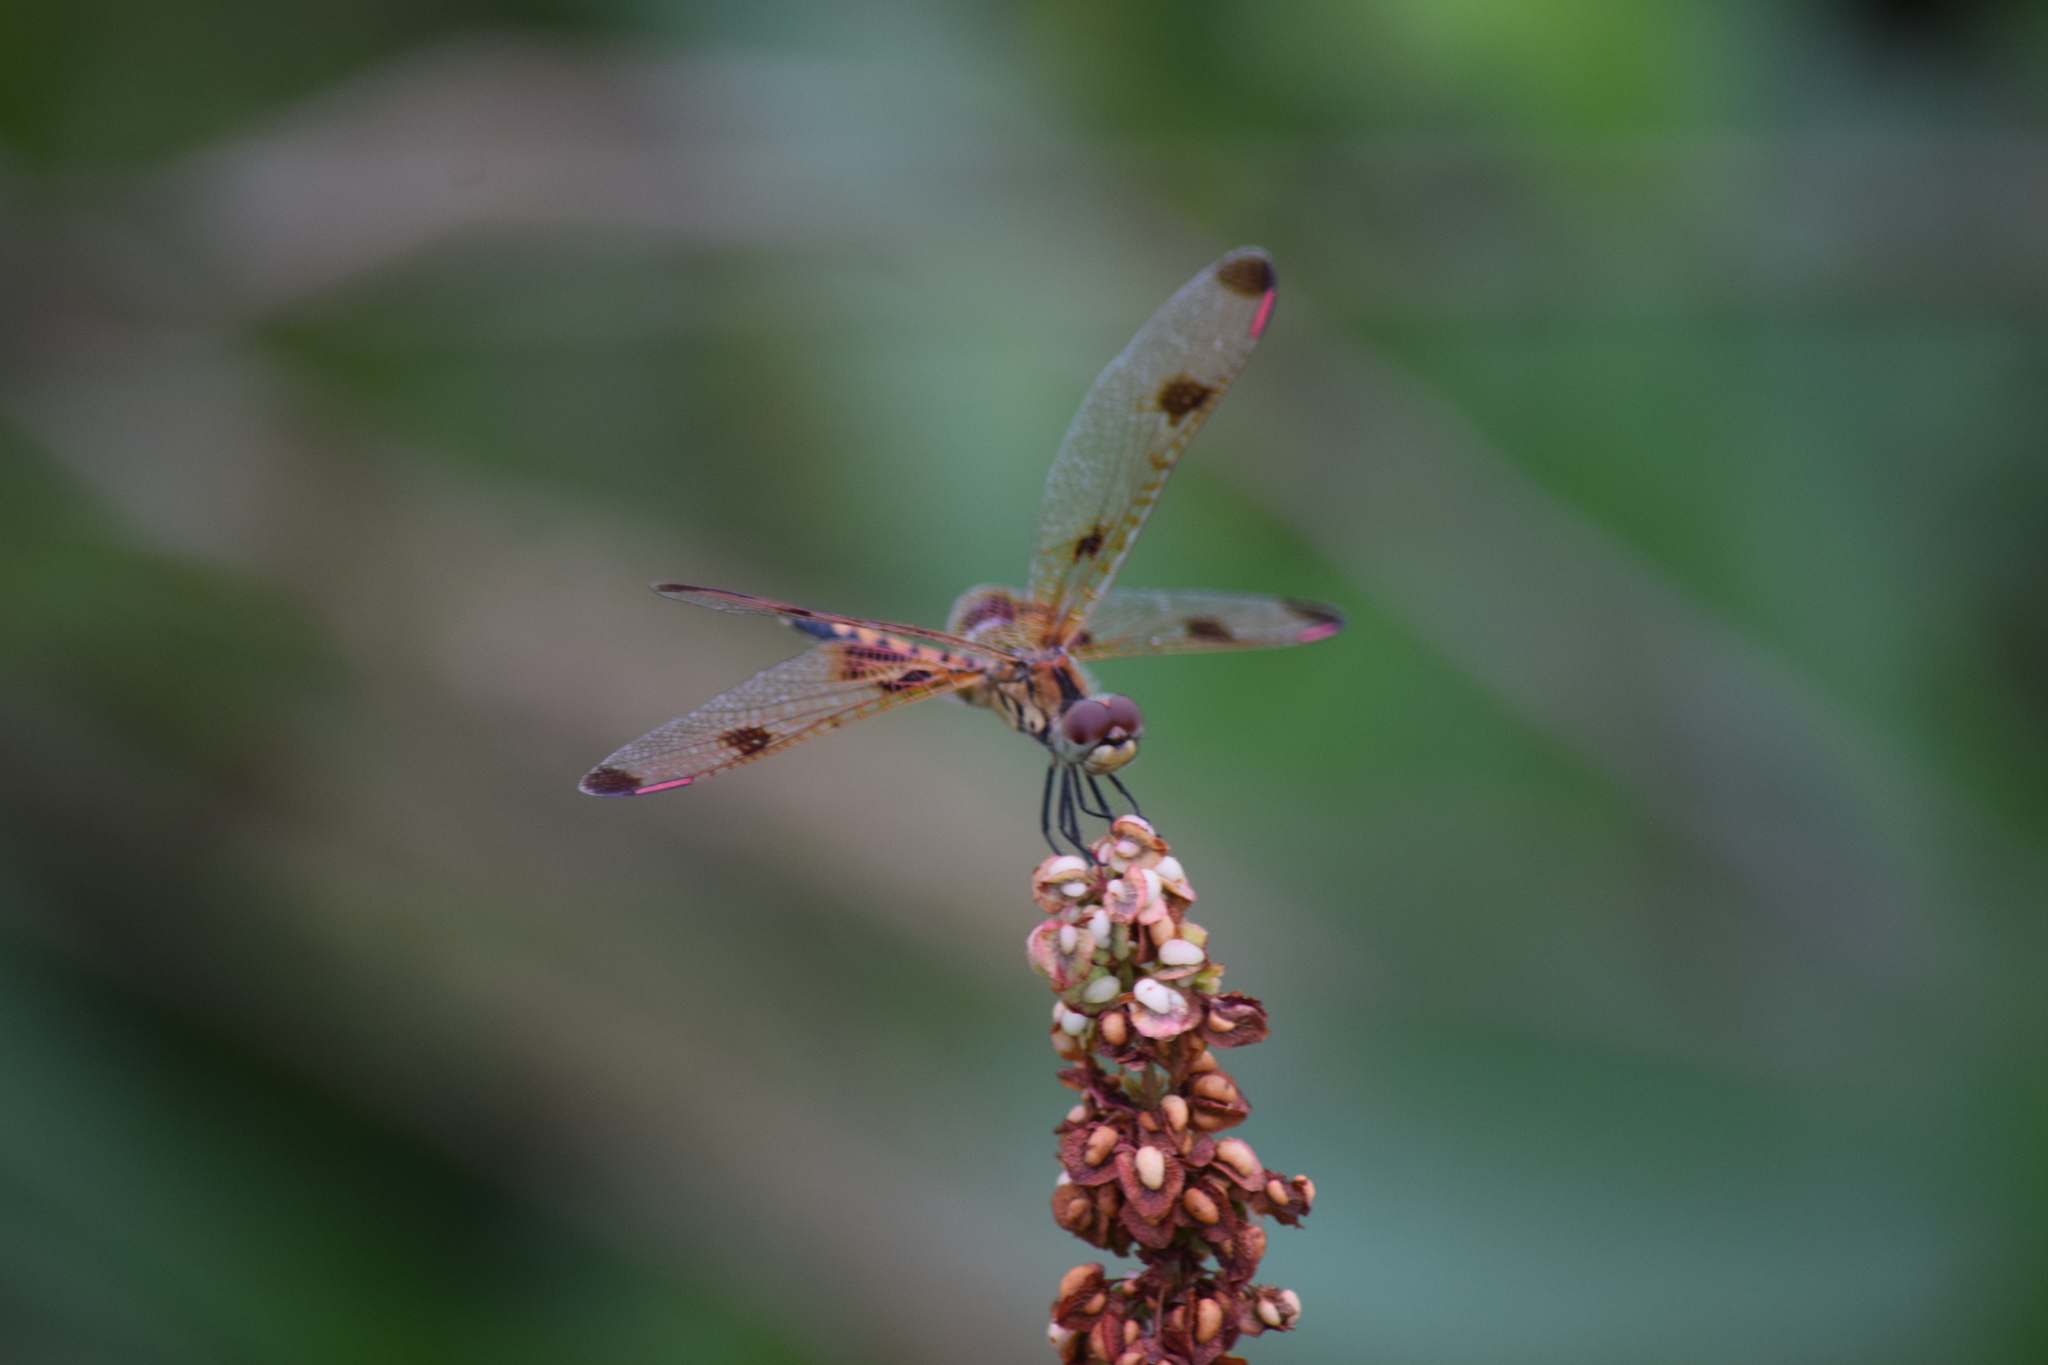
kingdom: Animalia
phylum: Arthropoda
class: Insecta
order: Odonata
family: Libellulidae
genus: Celithemis
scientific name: Celithemis elisa
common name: Calico pennant
